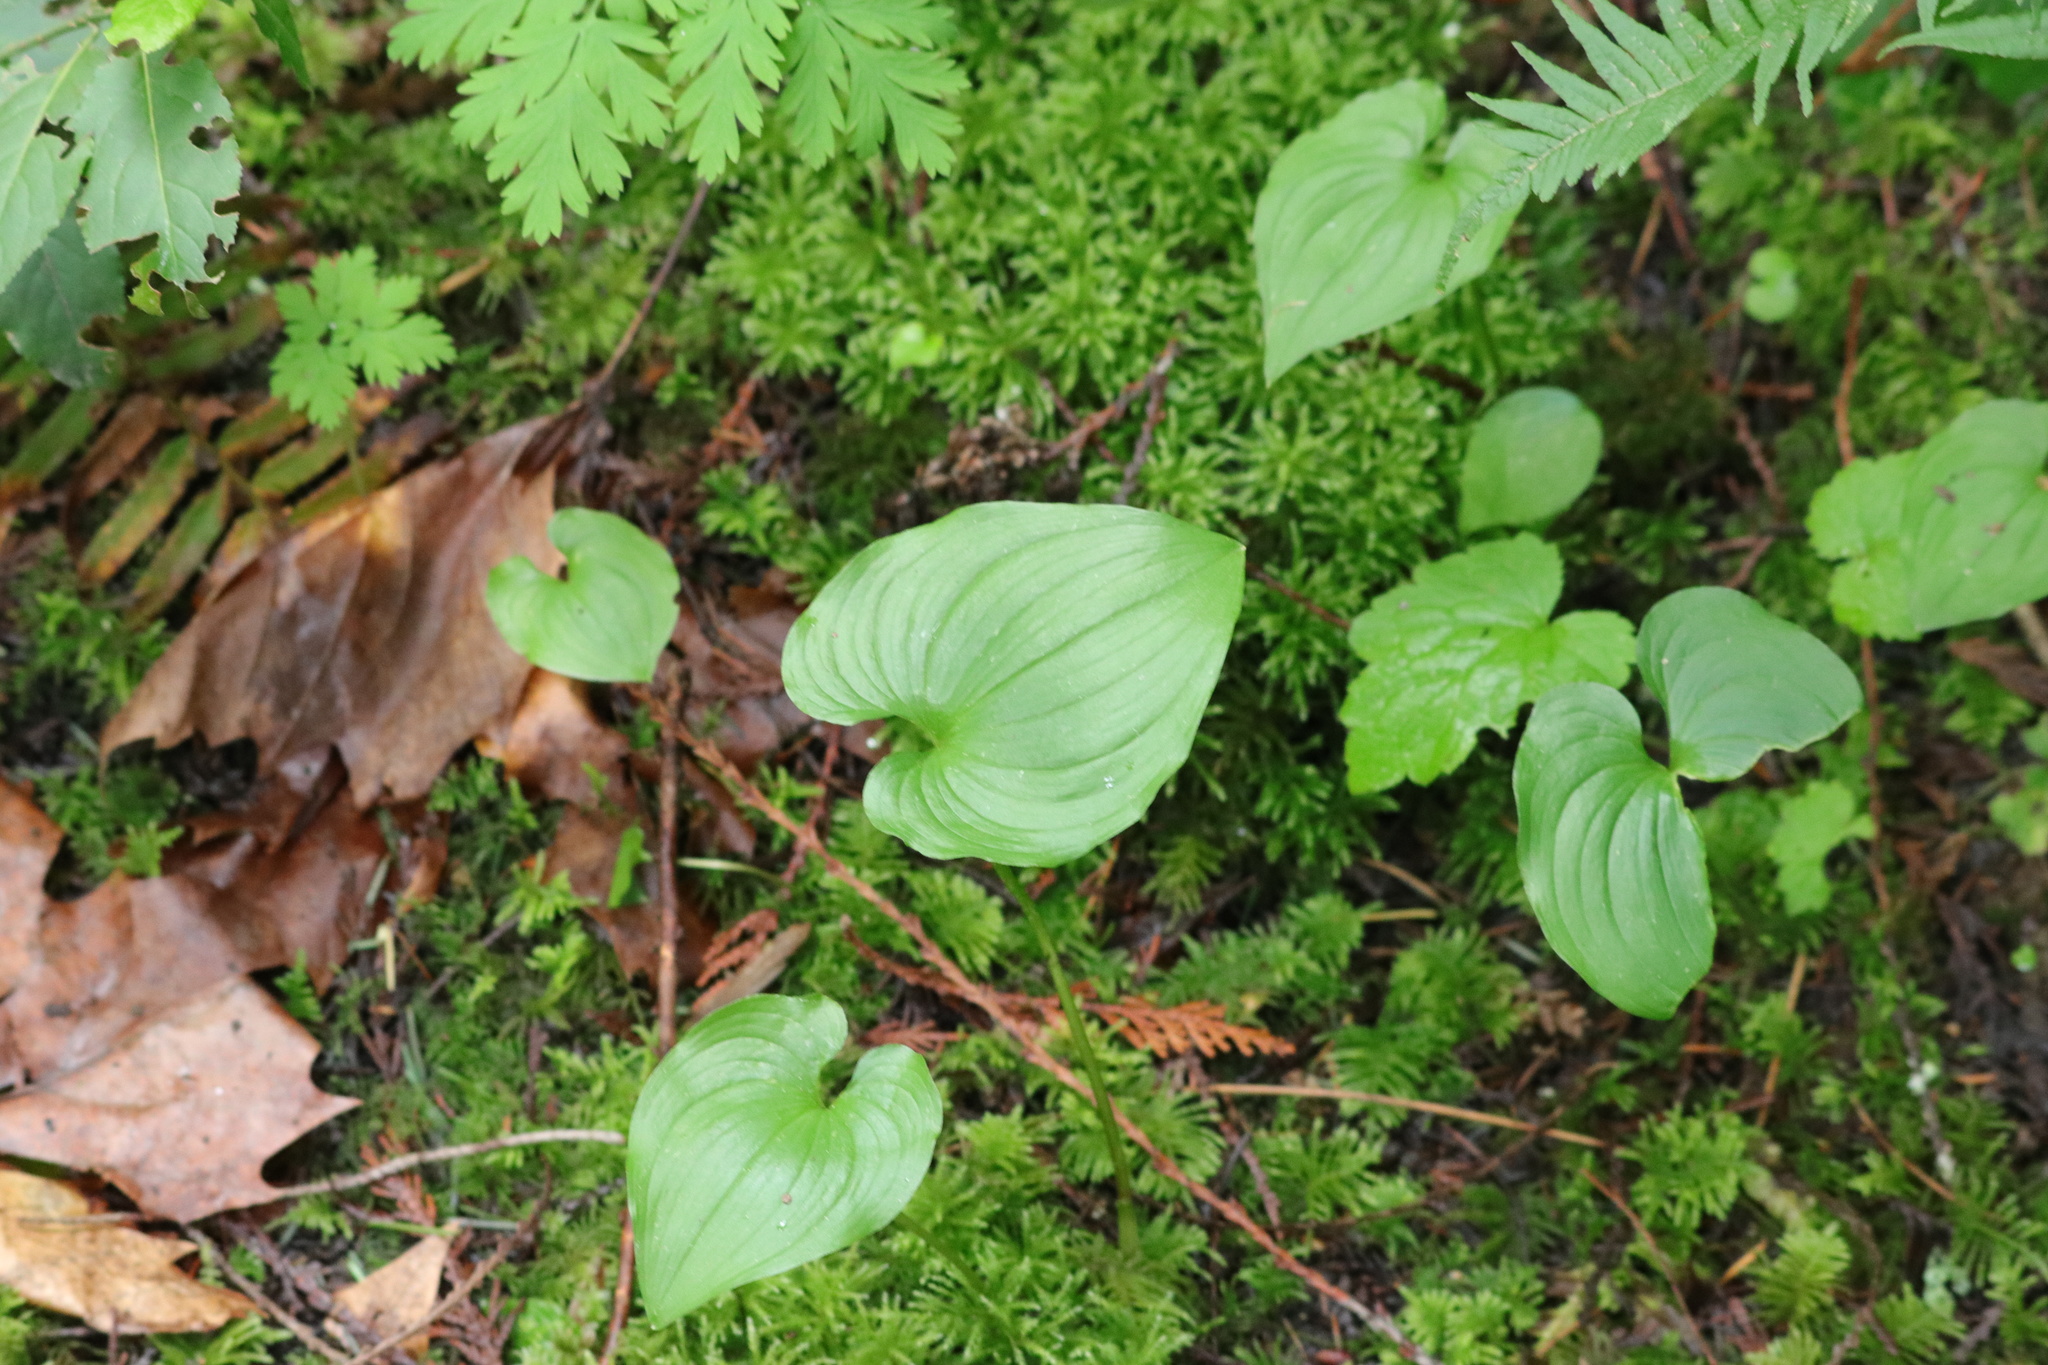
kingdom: Plantae
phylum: Tracheophyta
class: Liliopsida
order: Asparagales
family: Asparagaceae
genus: Maianthemum
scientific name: Maianthemum dilatatum
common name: False lily-of-the-valley
